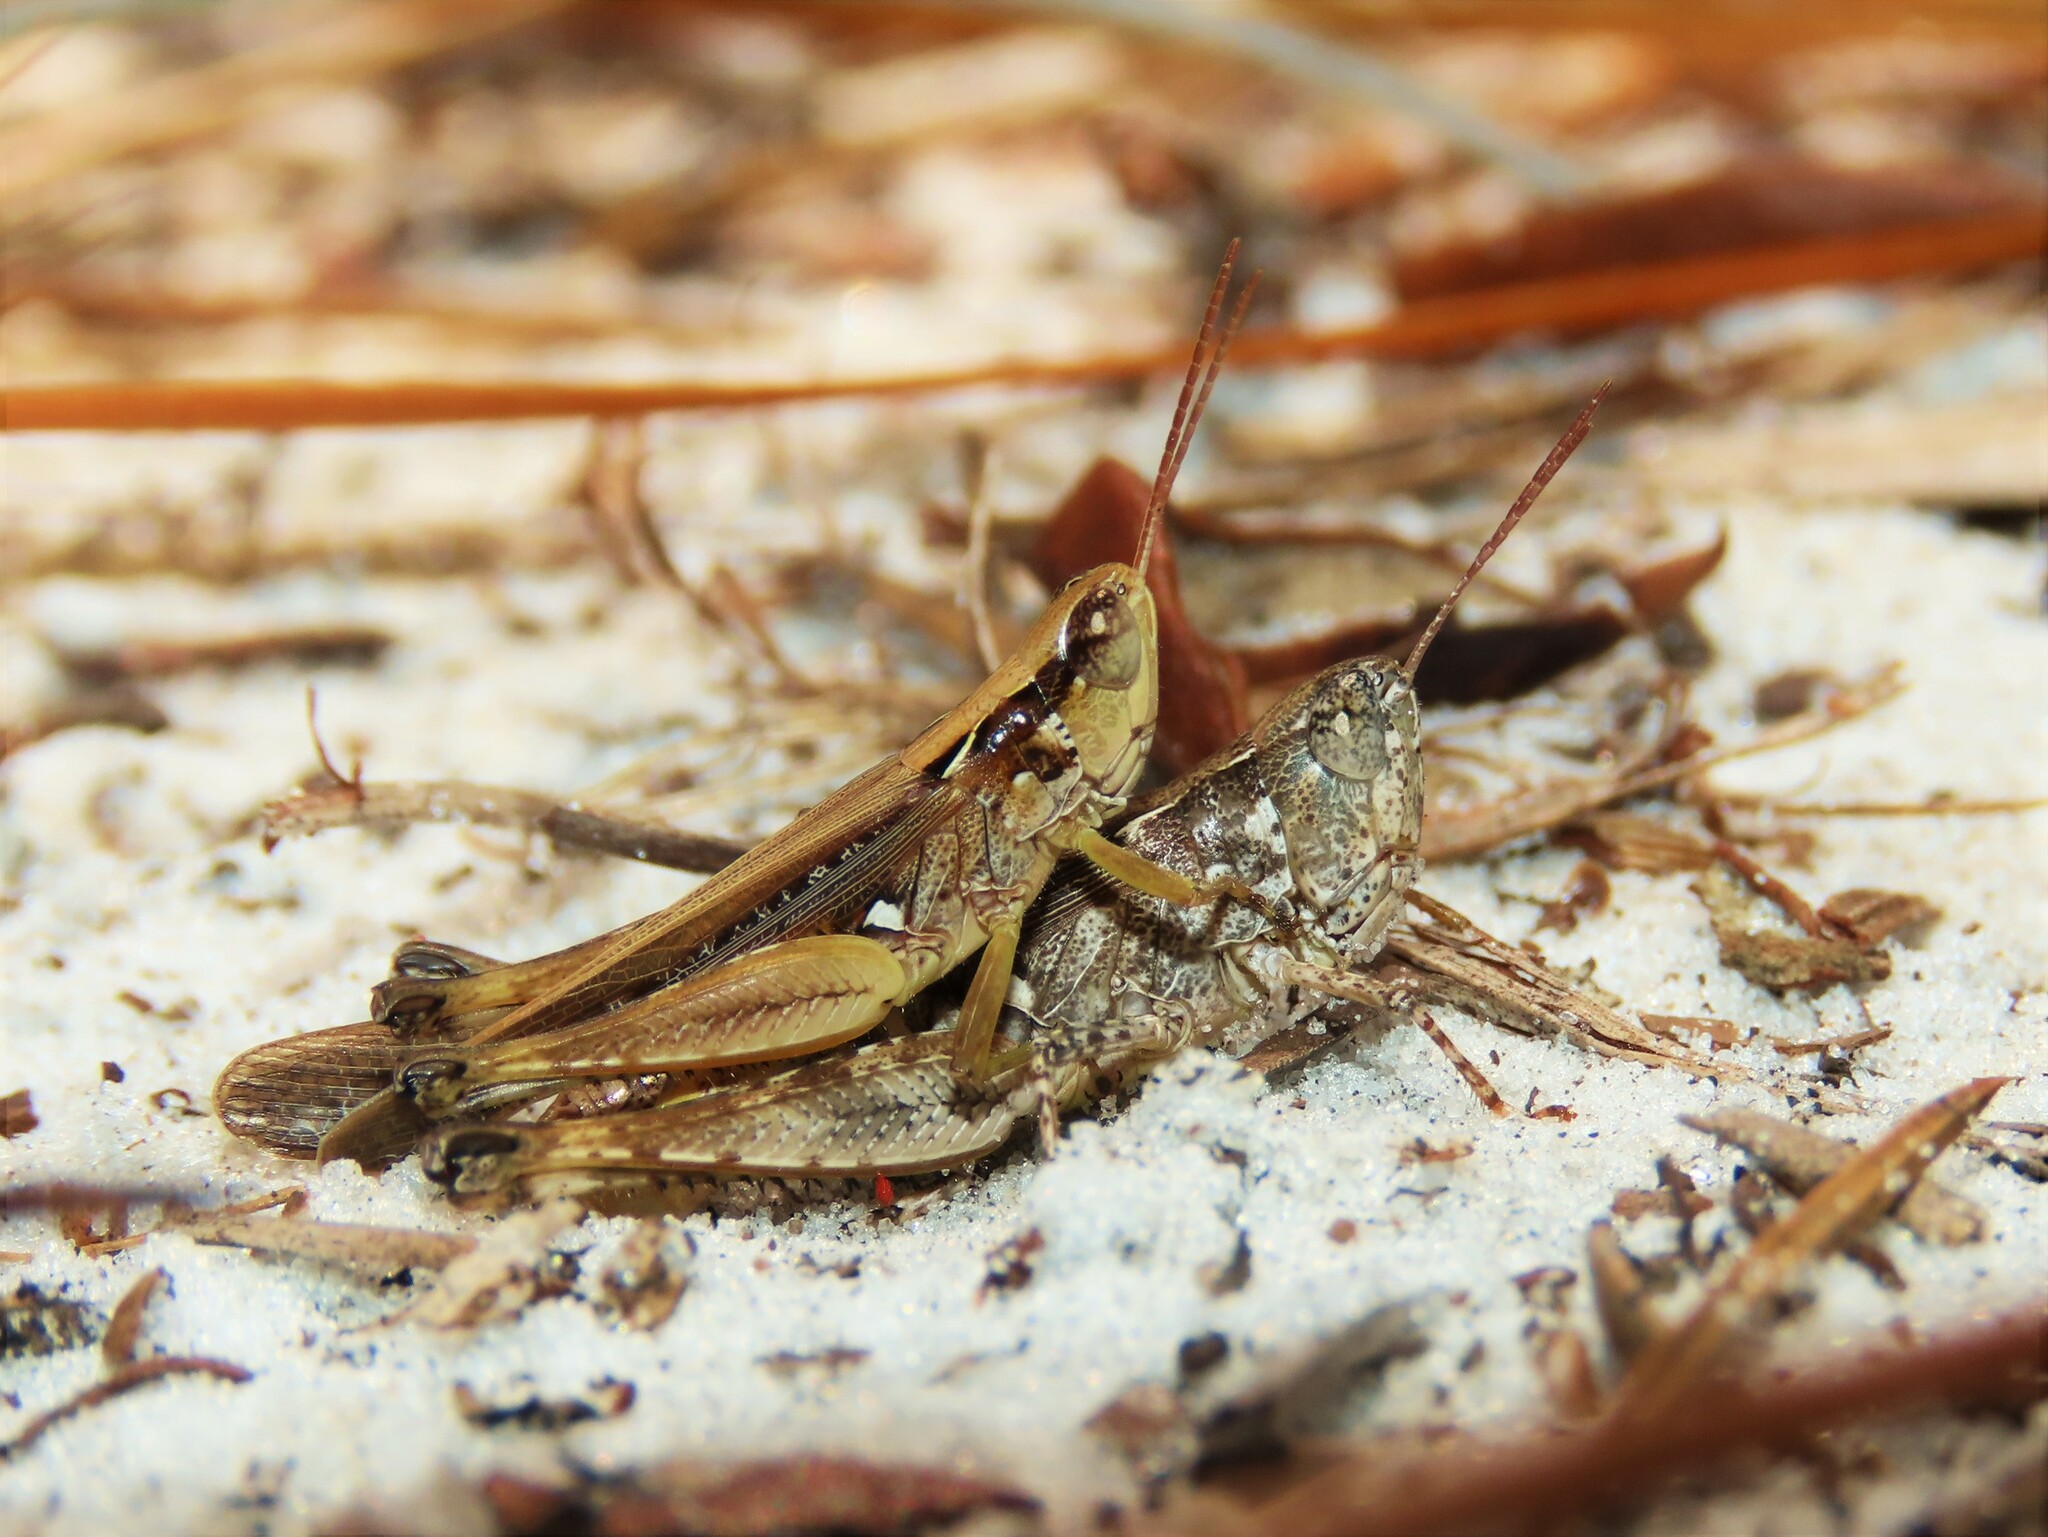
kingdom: Animalia
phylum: Arthropoda
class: Insecta
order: Orthoptera
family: Acrididae
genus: Orphulella
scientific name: Orphulella pelidna
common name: Spotted-wing grasshopper
